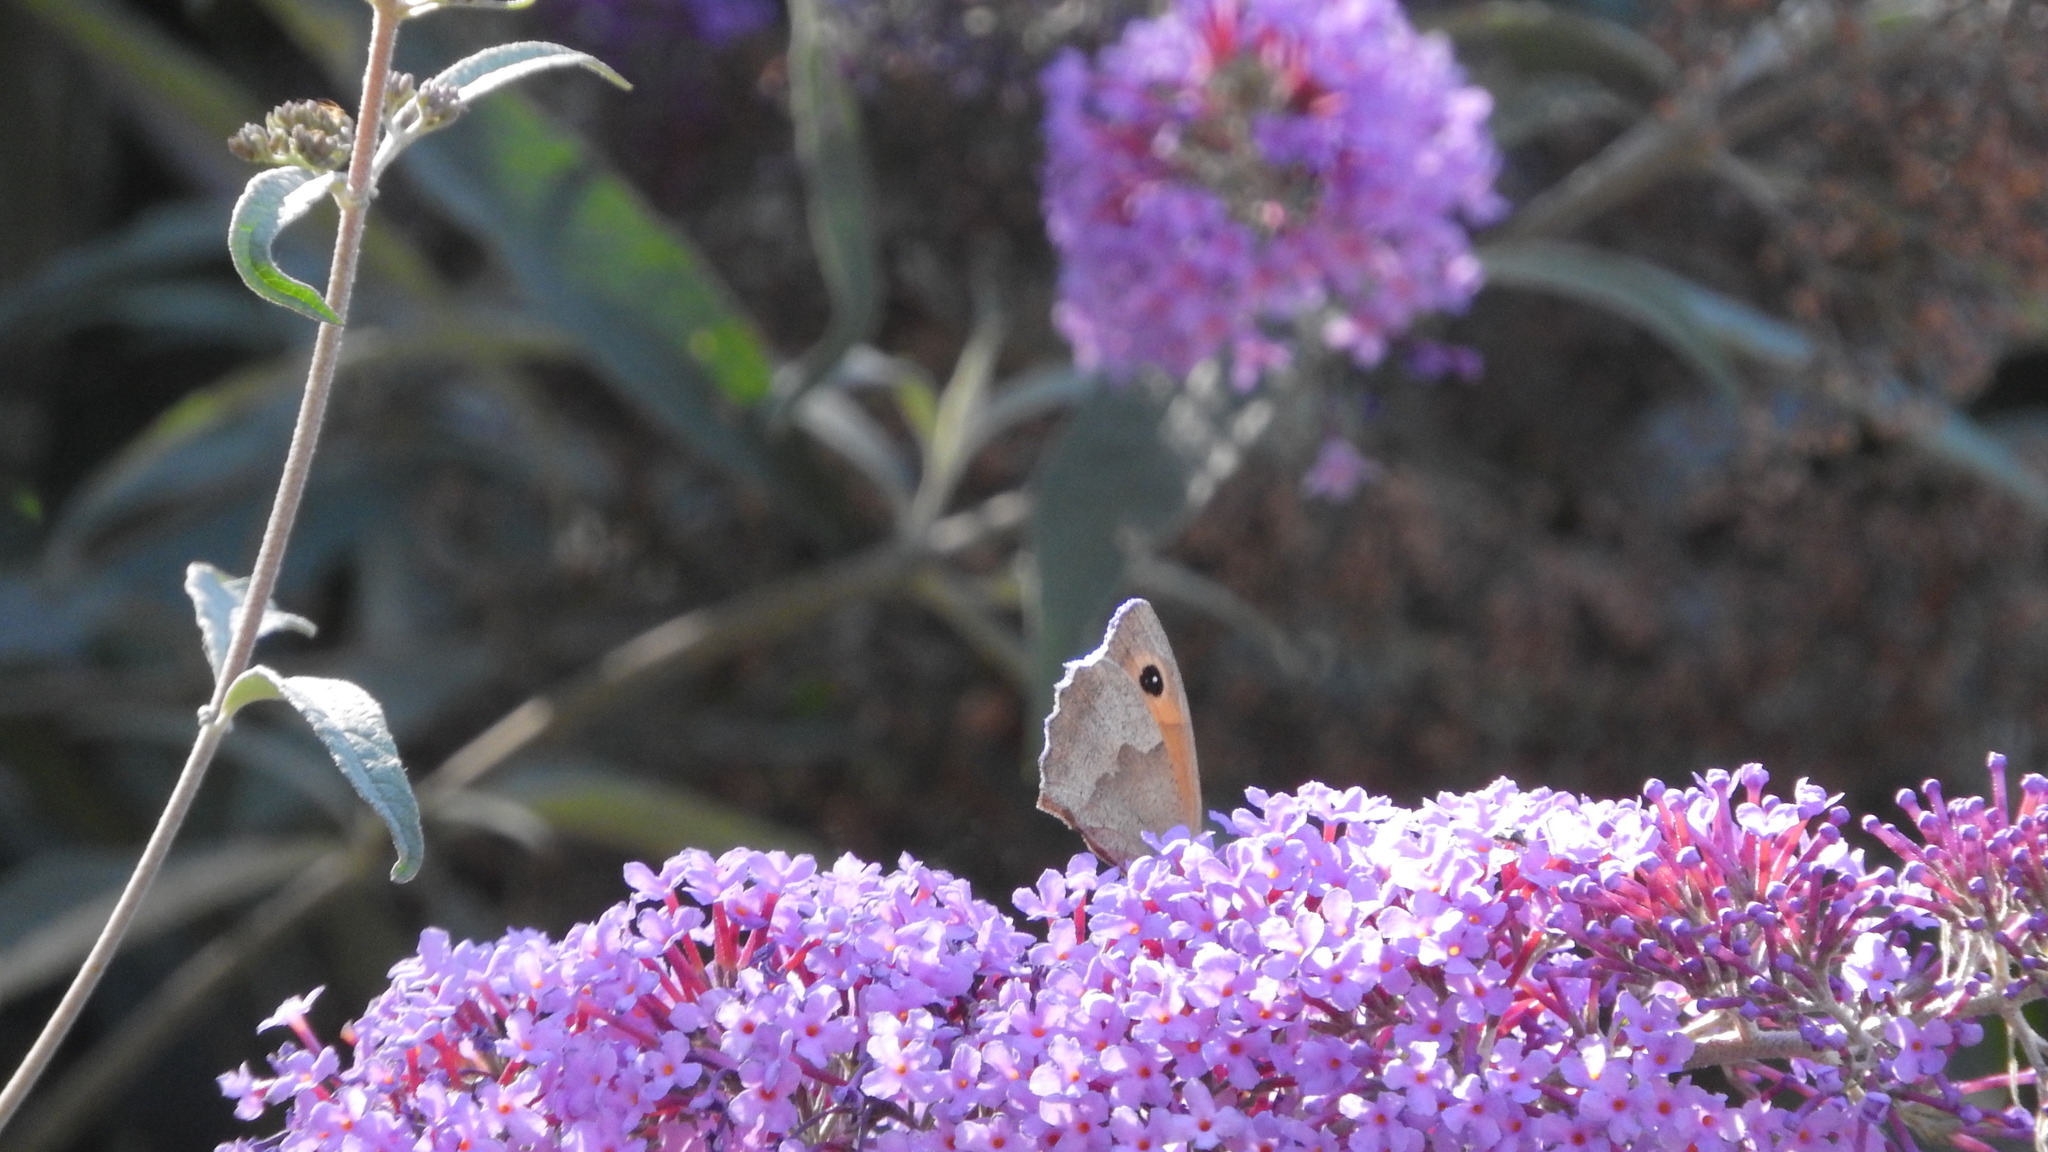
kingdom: Animalia
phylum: Arthropoda
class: Insecta
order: Lepidoptera
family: Nymphalidae
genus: Maniola
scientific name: Maniola jurtina
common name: Meadow brown
